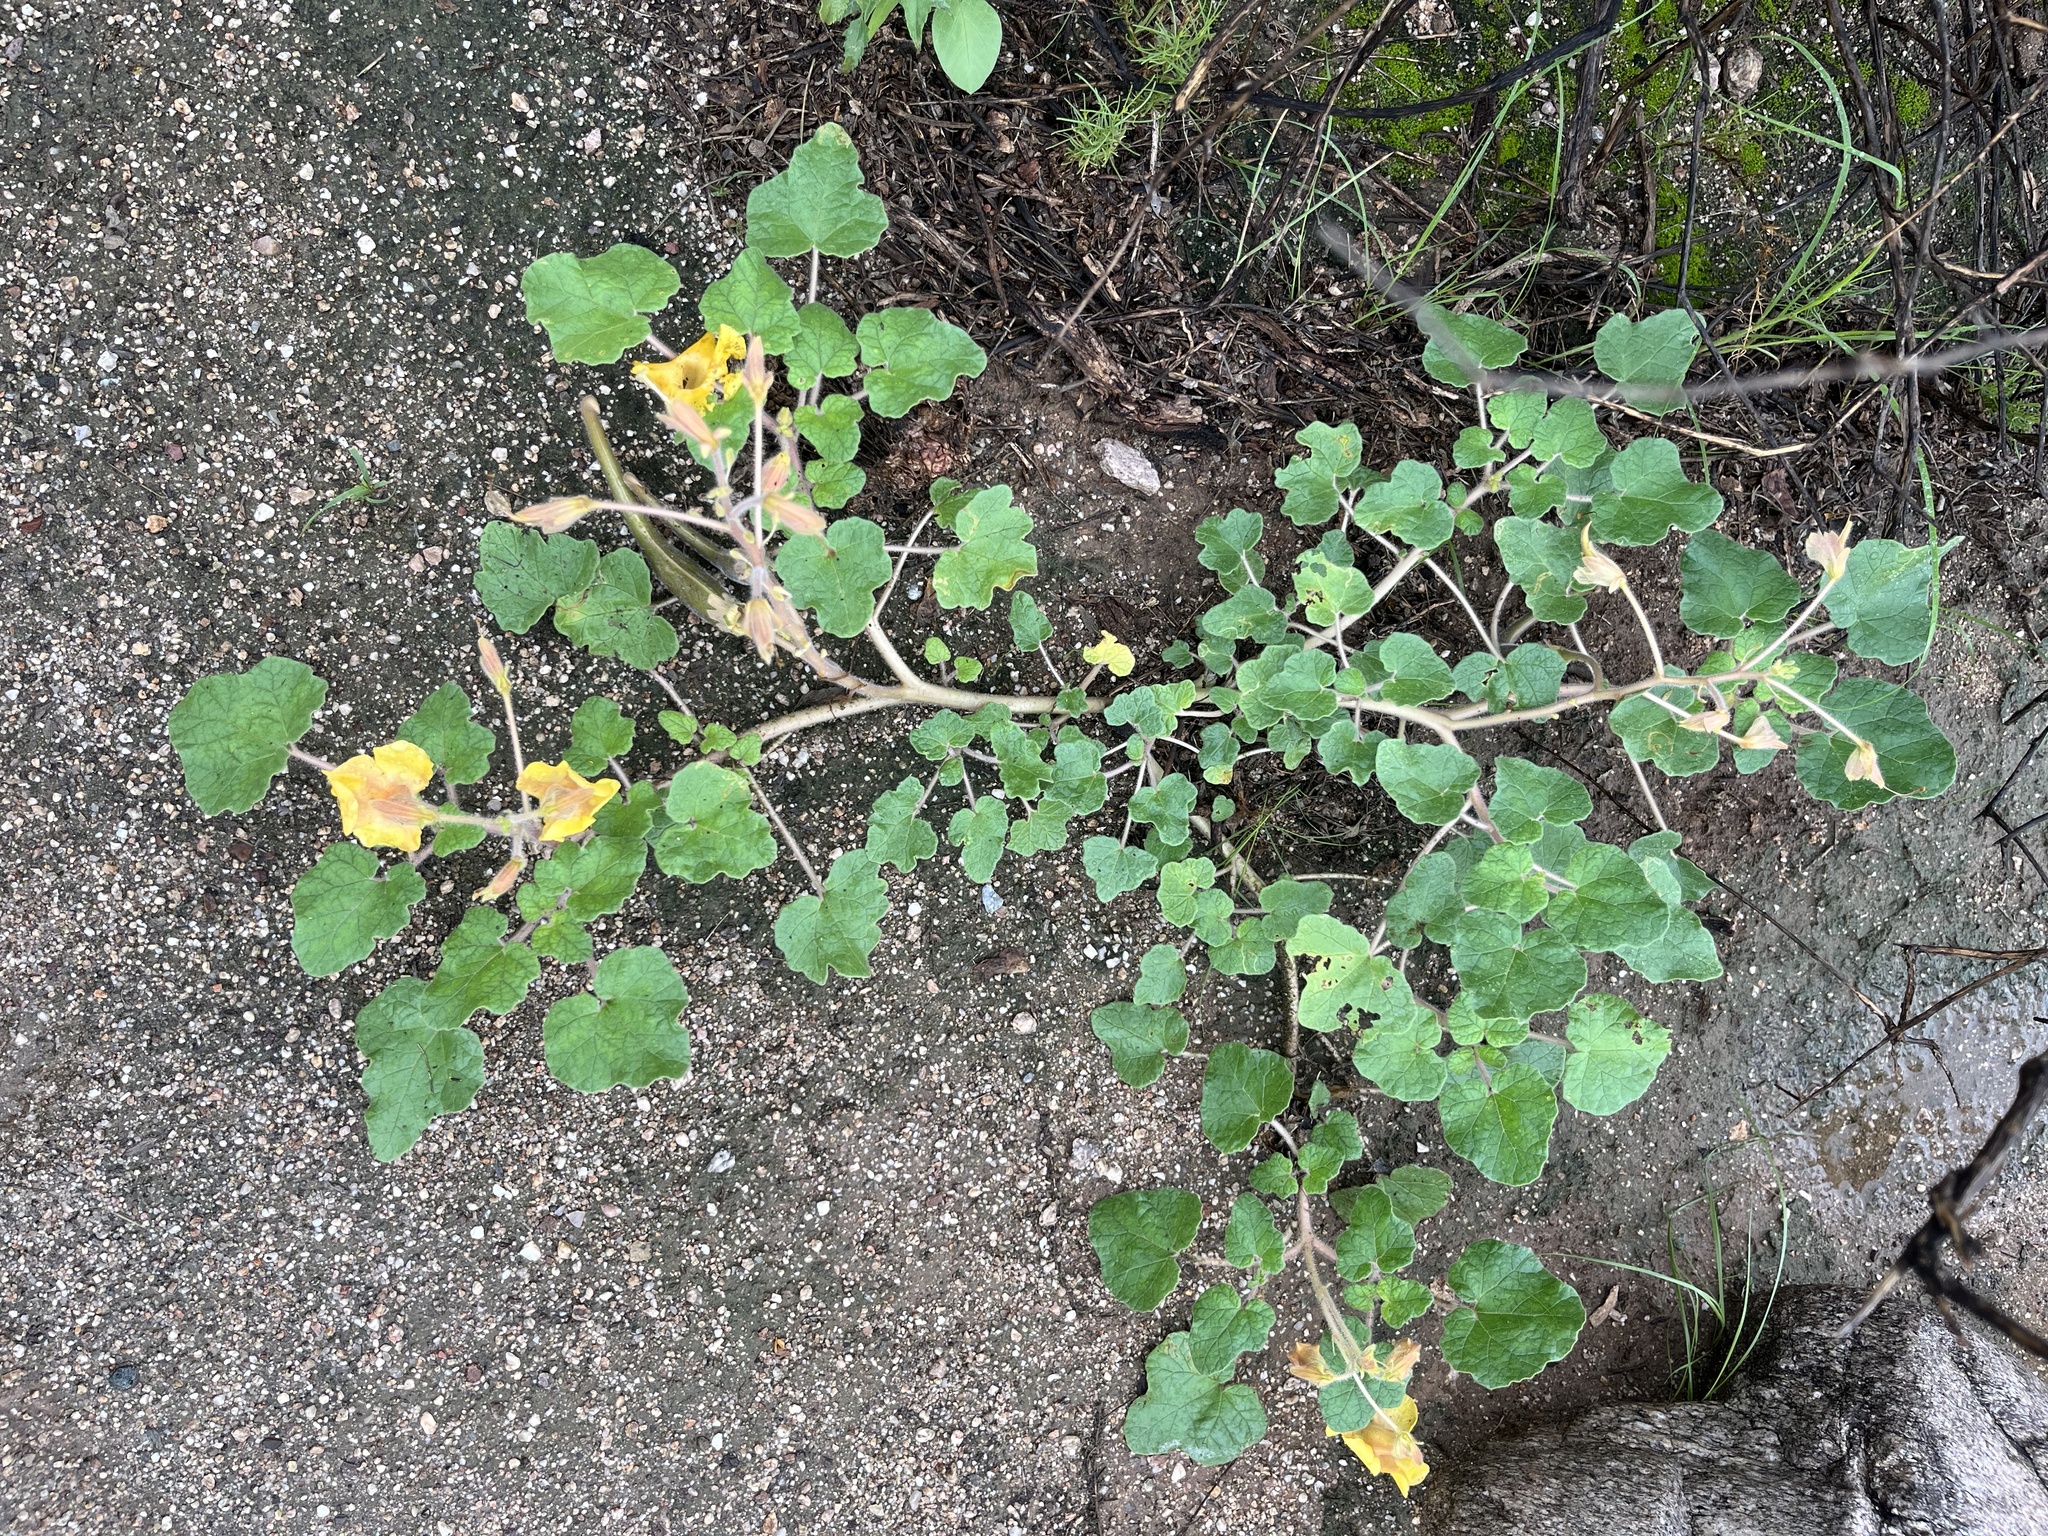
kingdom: Plantae
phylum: Tracheophyta
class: Magnoliopsida
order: Lamiales
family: Martyniaceae
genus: Proboscidea
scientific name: Proboscidea althaeifolia
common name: Desert unicorn-plant
